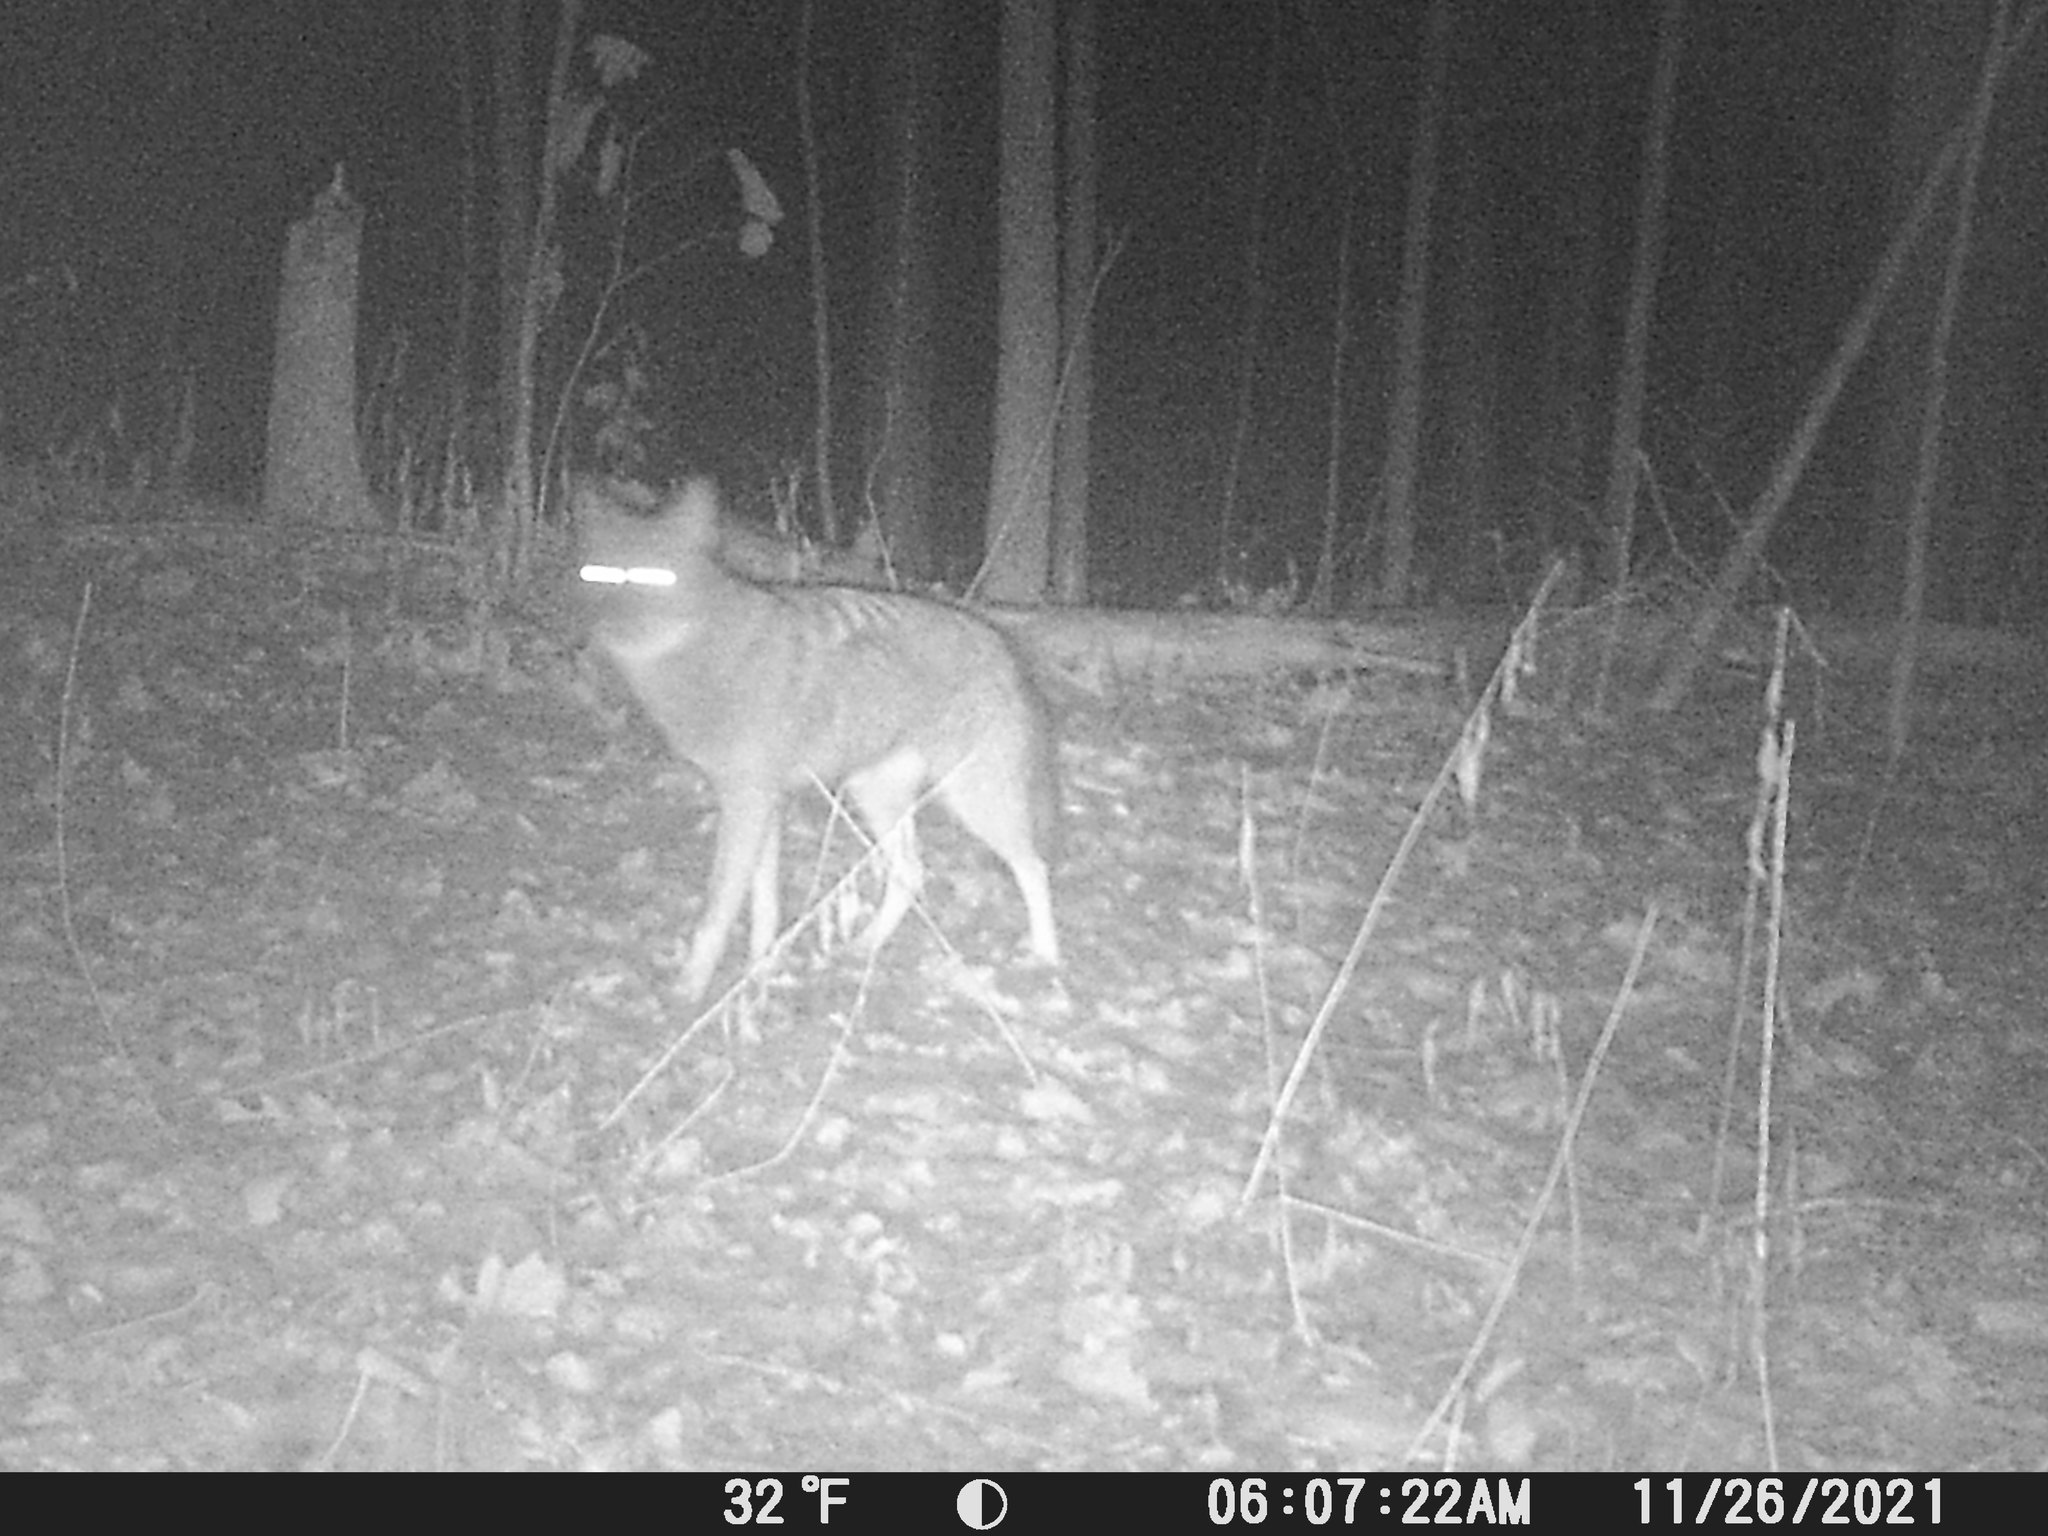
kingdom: Animalia
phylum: Chordata
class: Mammalia
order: Carnivora
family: Canidae
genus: Canis
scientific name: Canis latrans
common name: Coyote
